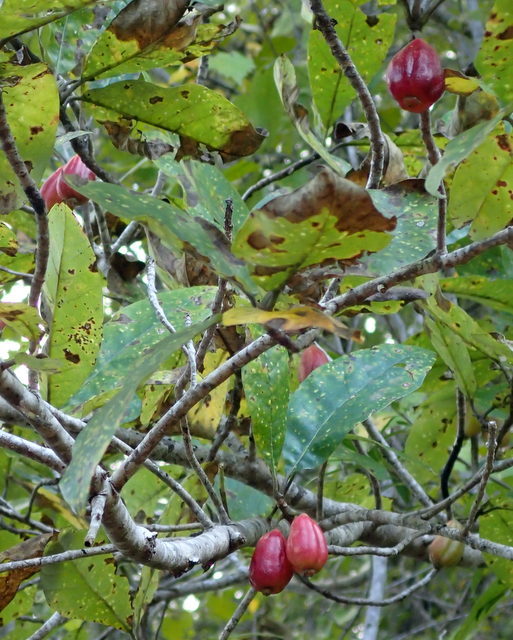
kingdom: Plantae
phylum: Tracheophyta
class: Magnoliopsida
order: Cornales
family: Nyssaceae
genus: Nyssa
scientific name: Nyssa ogeche
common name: Ogeechee tupelo
